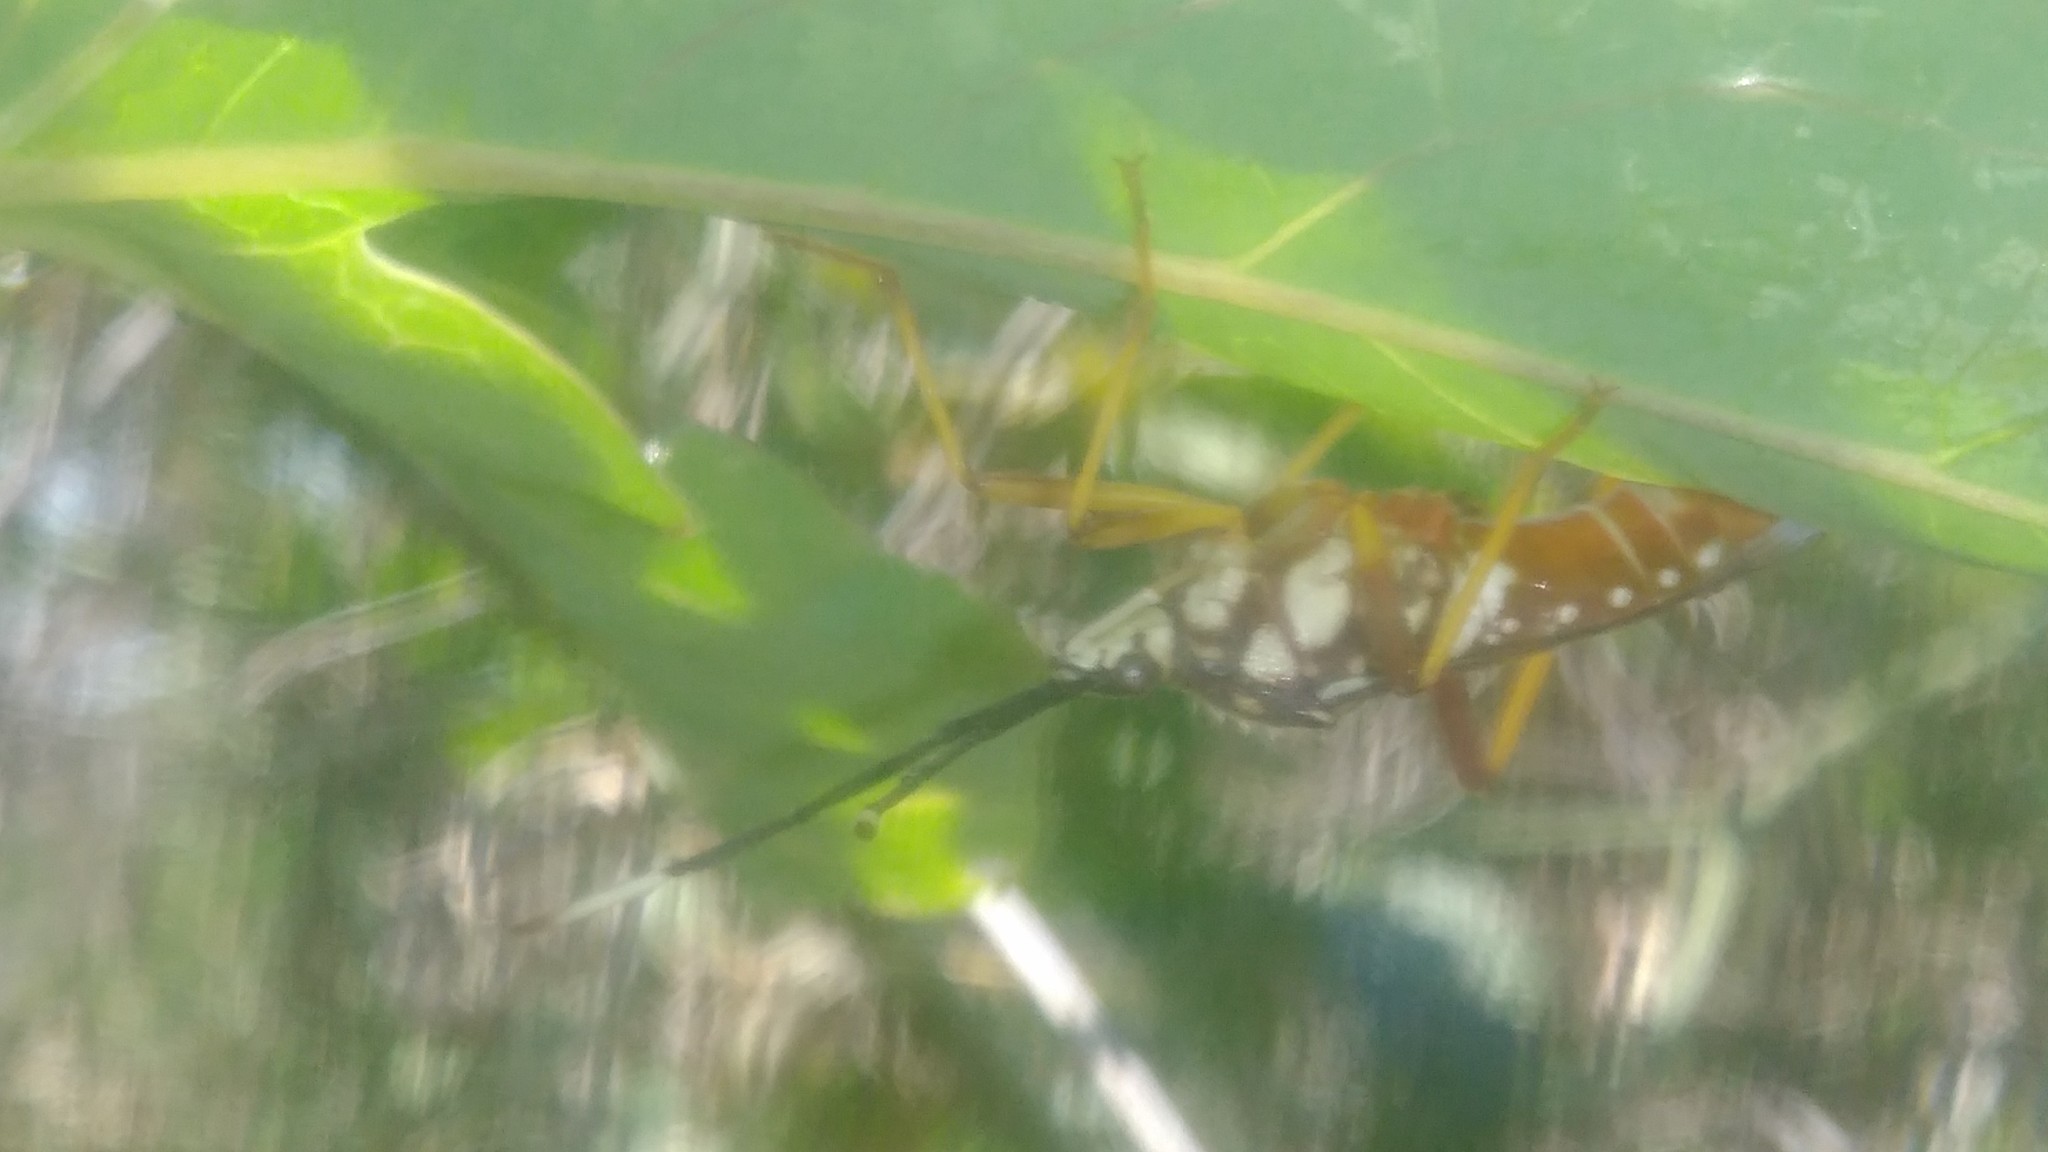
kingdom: Animalia
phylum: Arthropoda
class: Insecta
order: Hemiptera
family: Coreidae
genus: Holhymenia
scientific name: Holhymenia histrio
